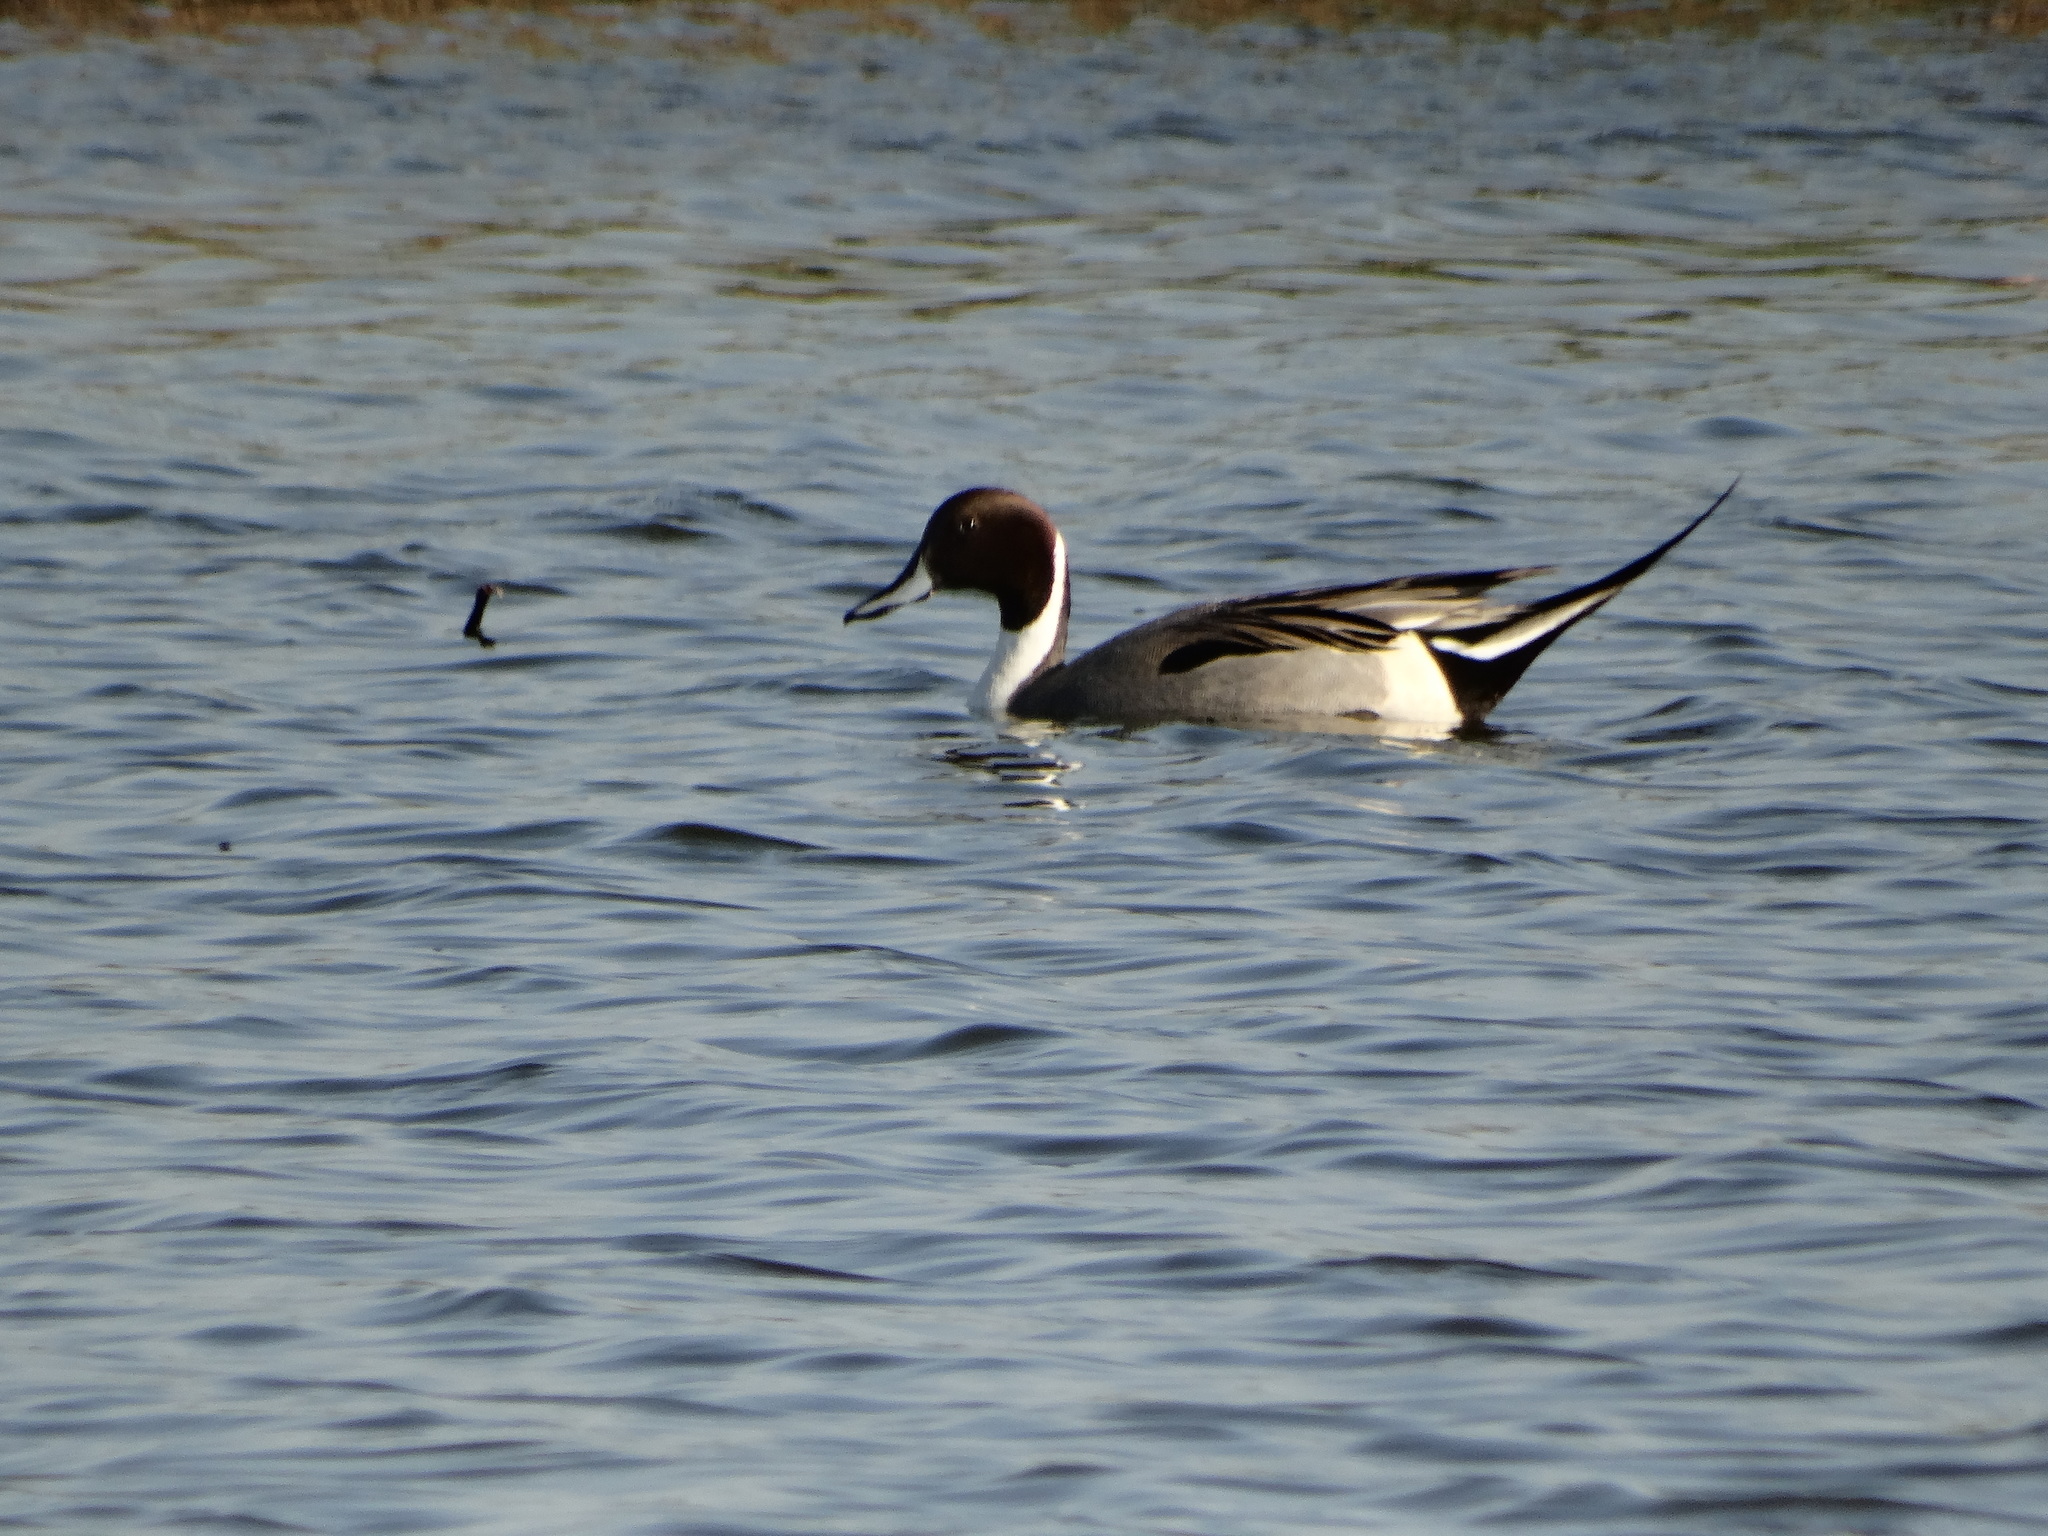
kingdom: Animalia
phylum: Chordata
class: Aves
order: Anseriformes
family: Anatidae
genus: Anas
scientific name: Anas acuta
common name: Northern pintail
